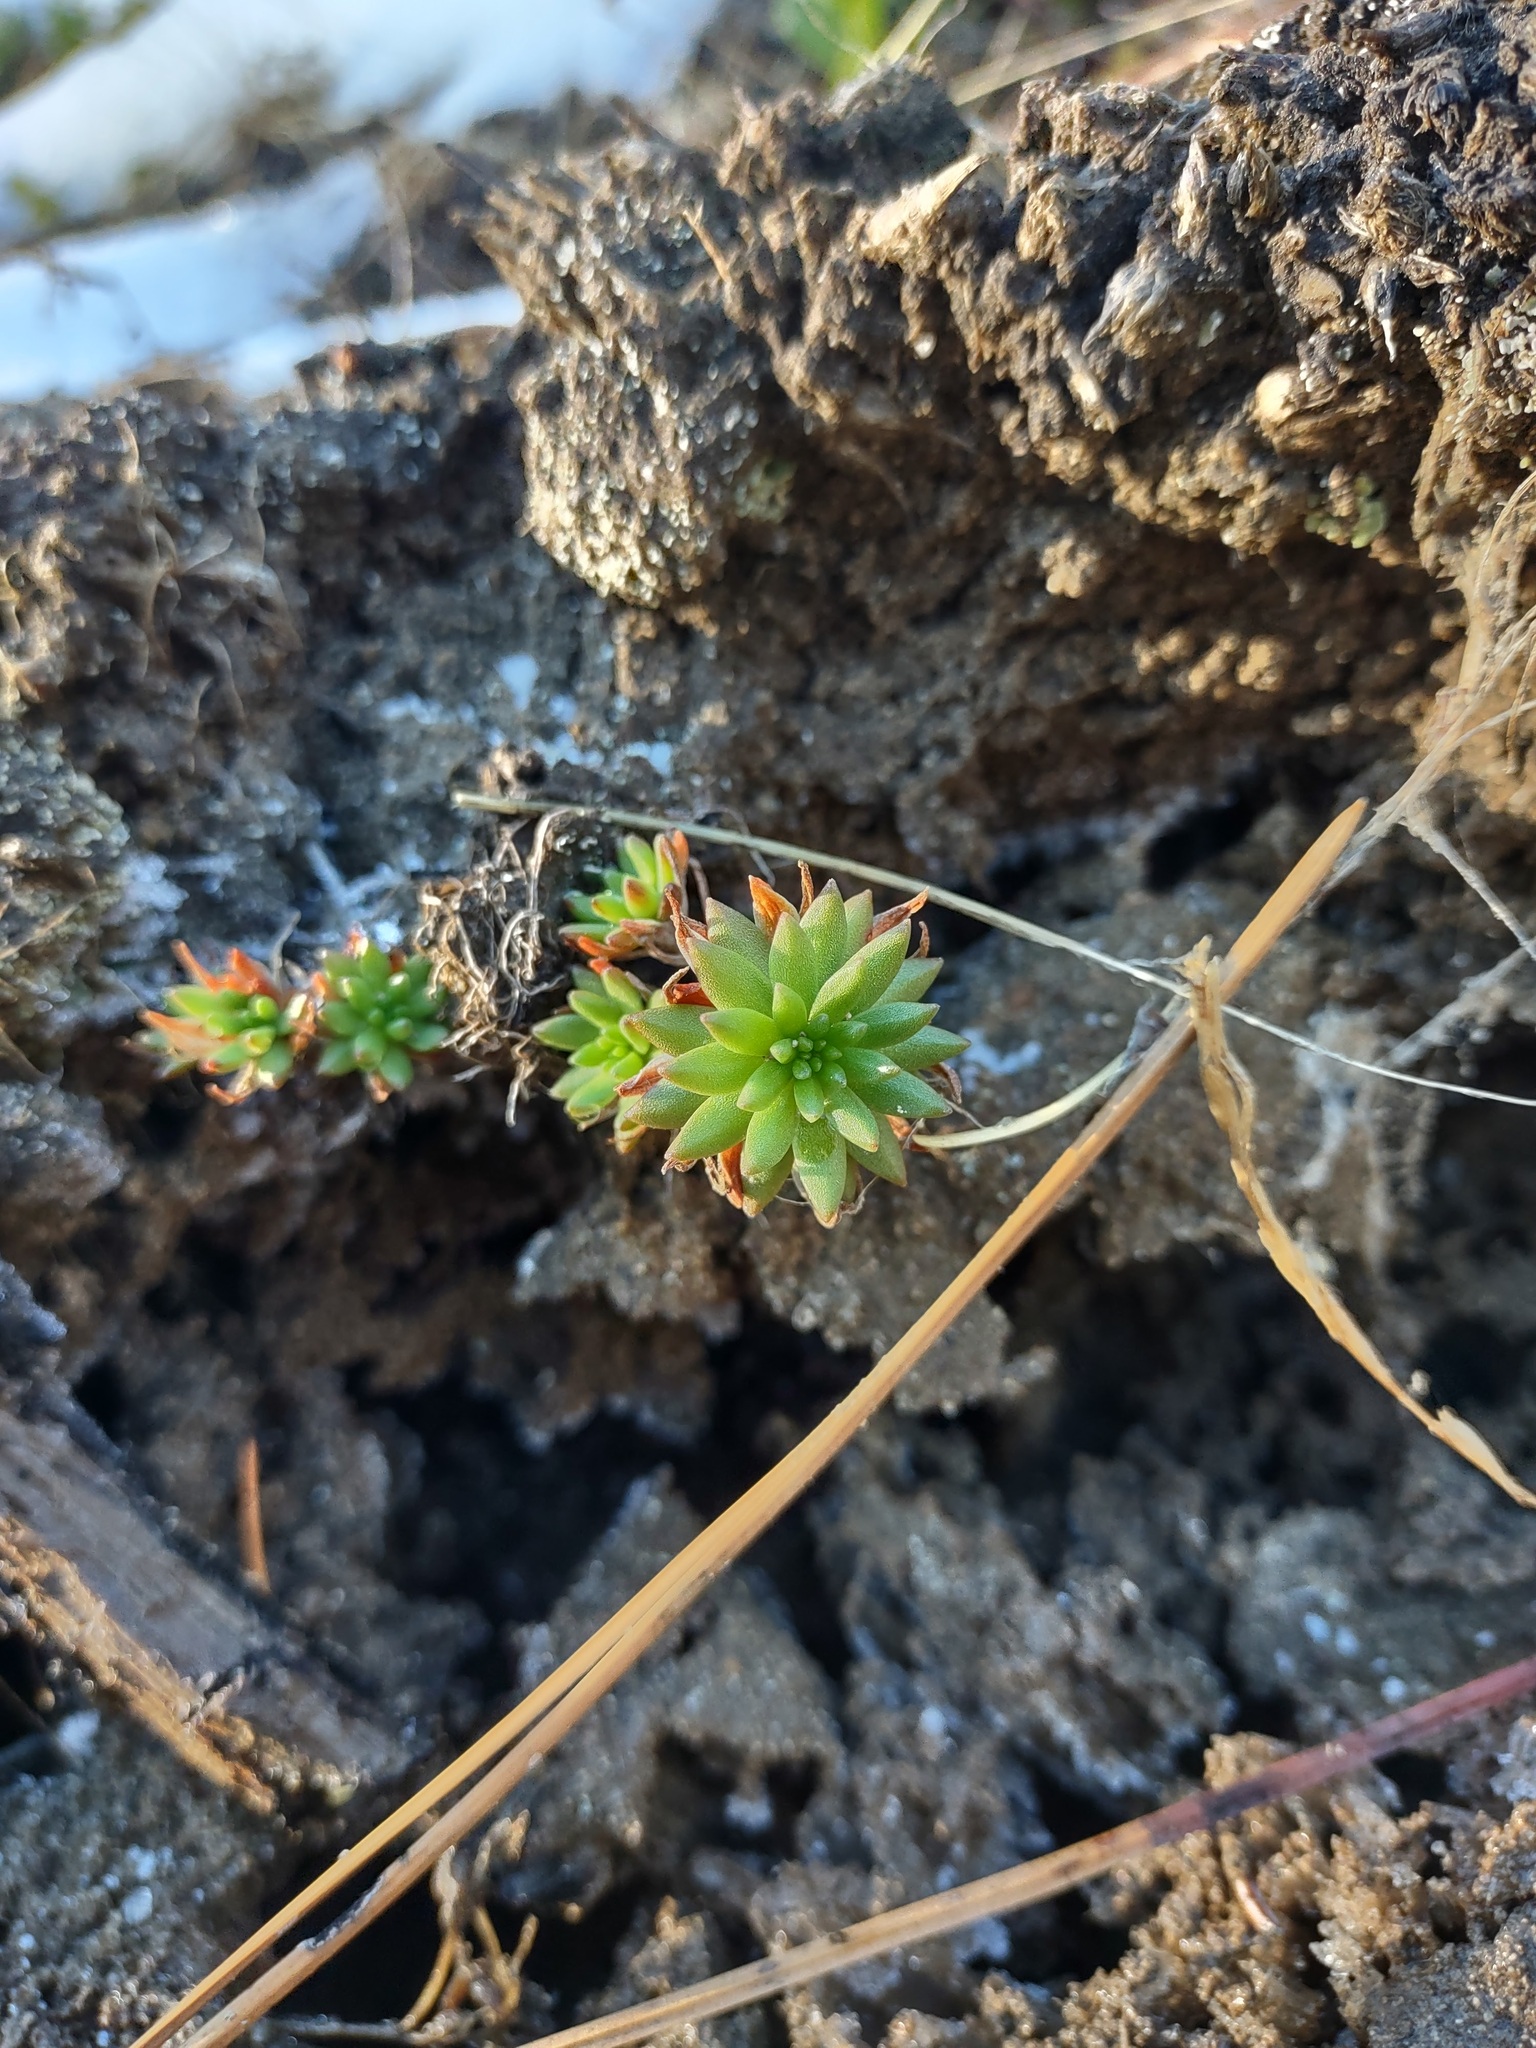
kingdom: Plantae
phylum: Tracheophyta
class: Magnoliopsida
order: Saxifragales
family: Crassulaceae
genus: Sedum
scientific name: Sedum stenopetalum
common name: Narrow-petaled stonecrop
